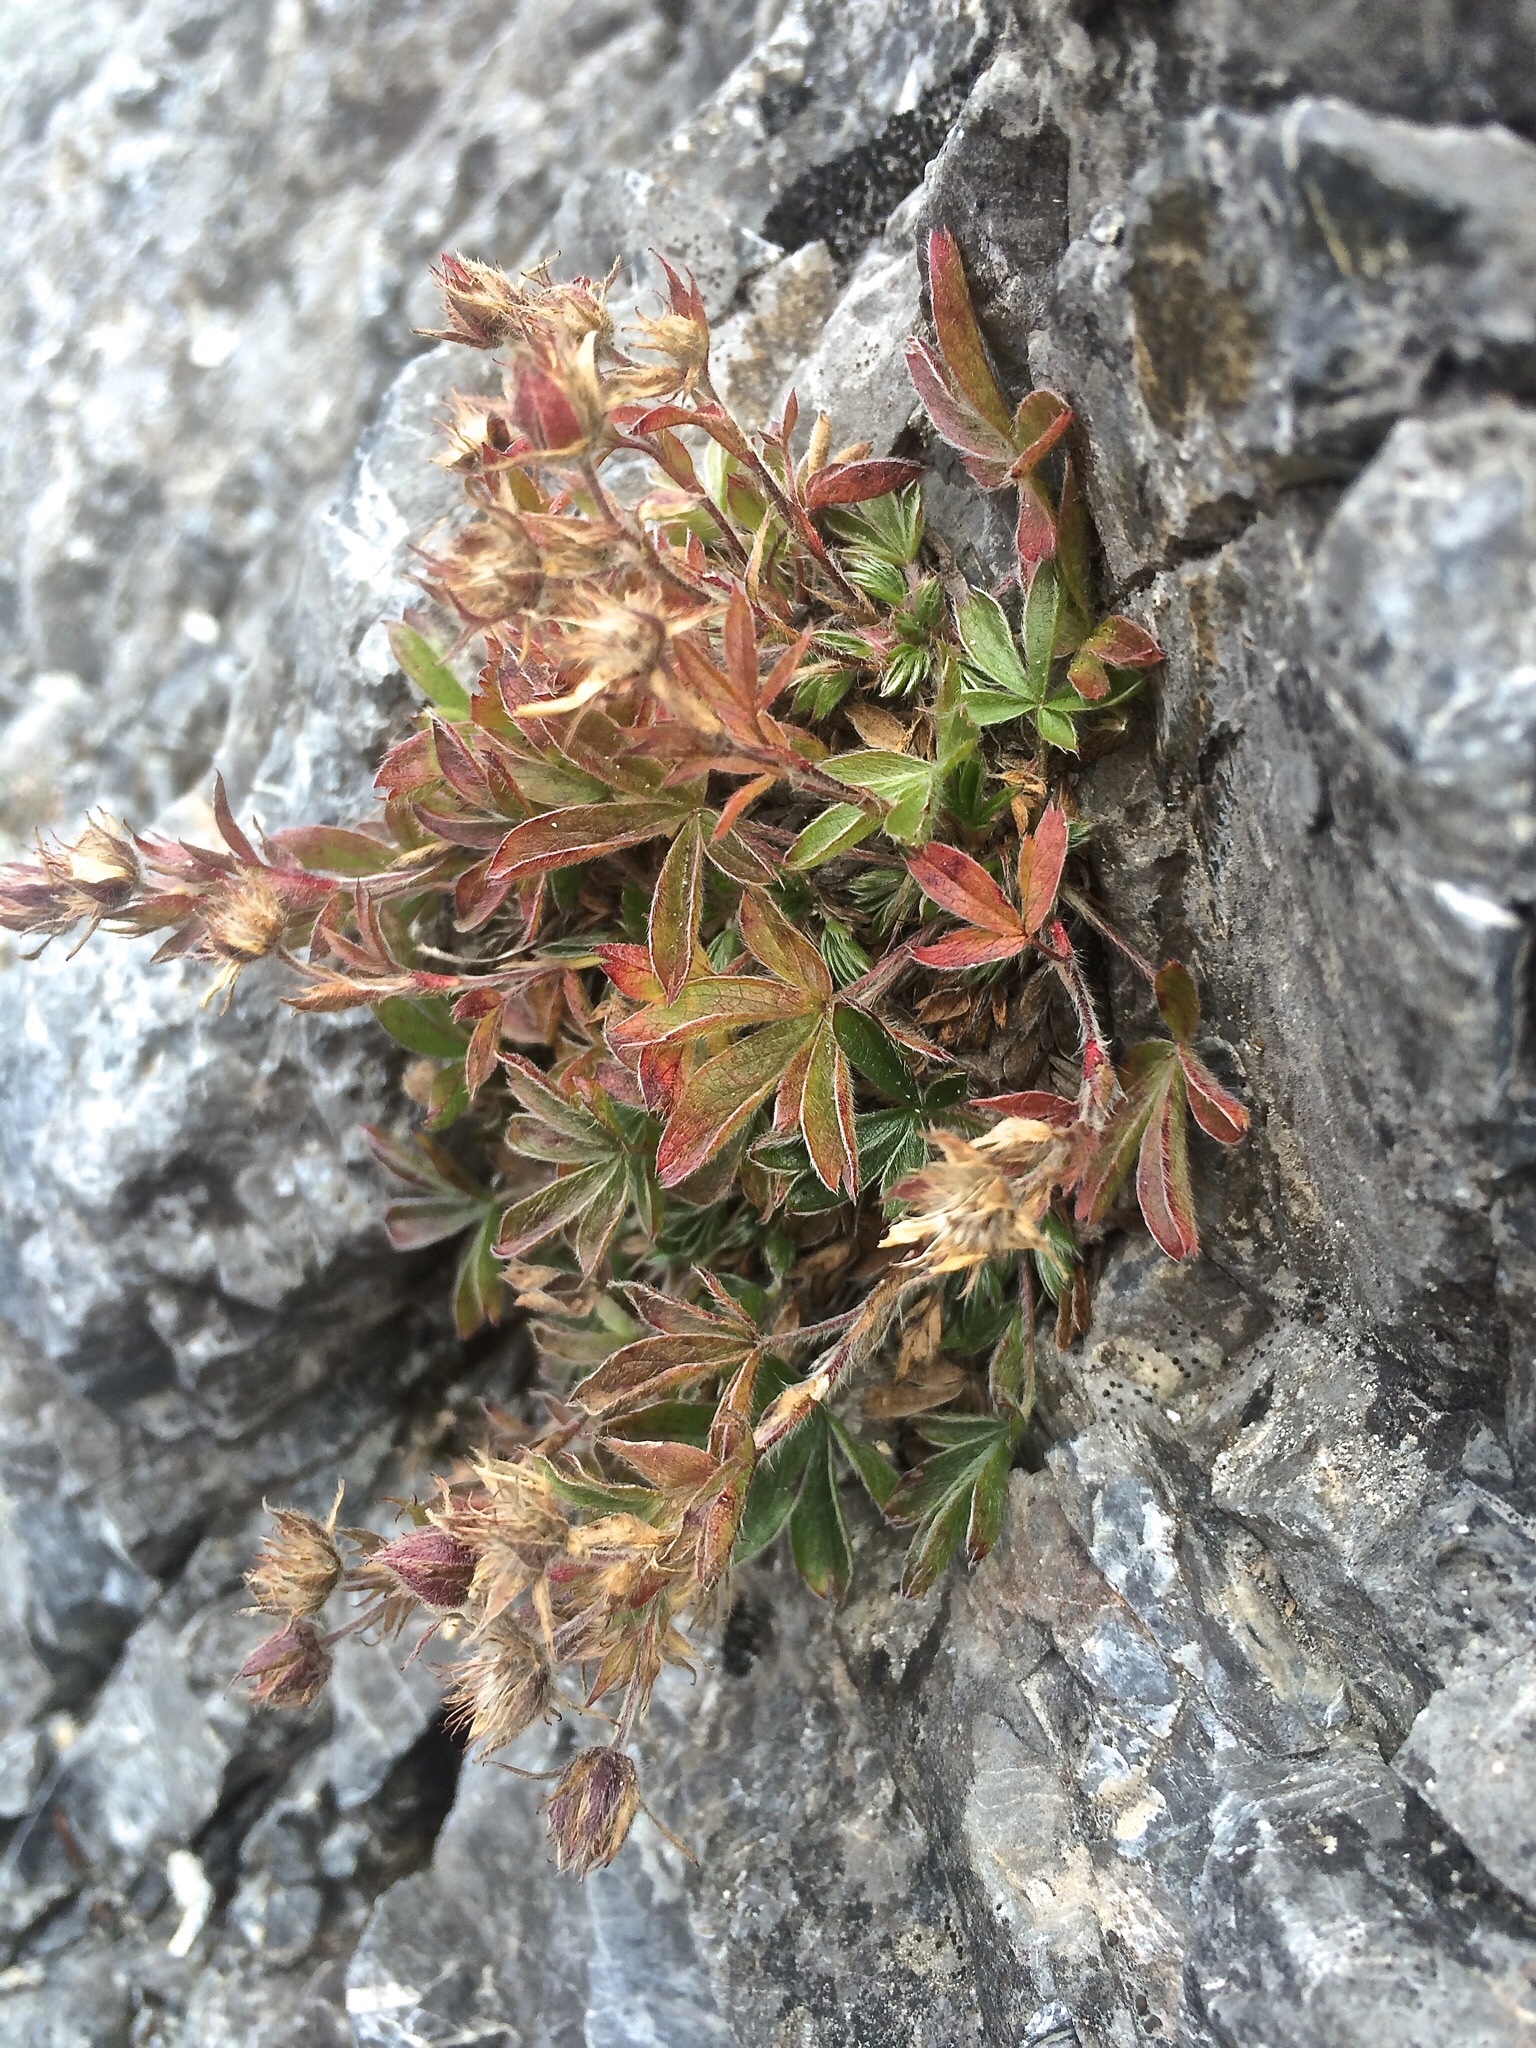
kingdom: Plantae
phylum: Tracheophyta
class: Magnoliopsida
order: Rosales
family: Rosaceae
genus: Potentilla
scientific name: Potentilla caulescens
